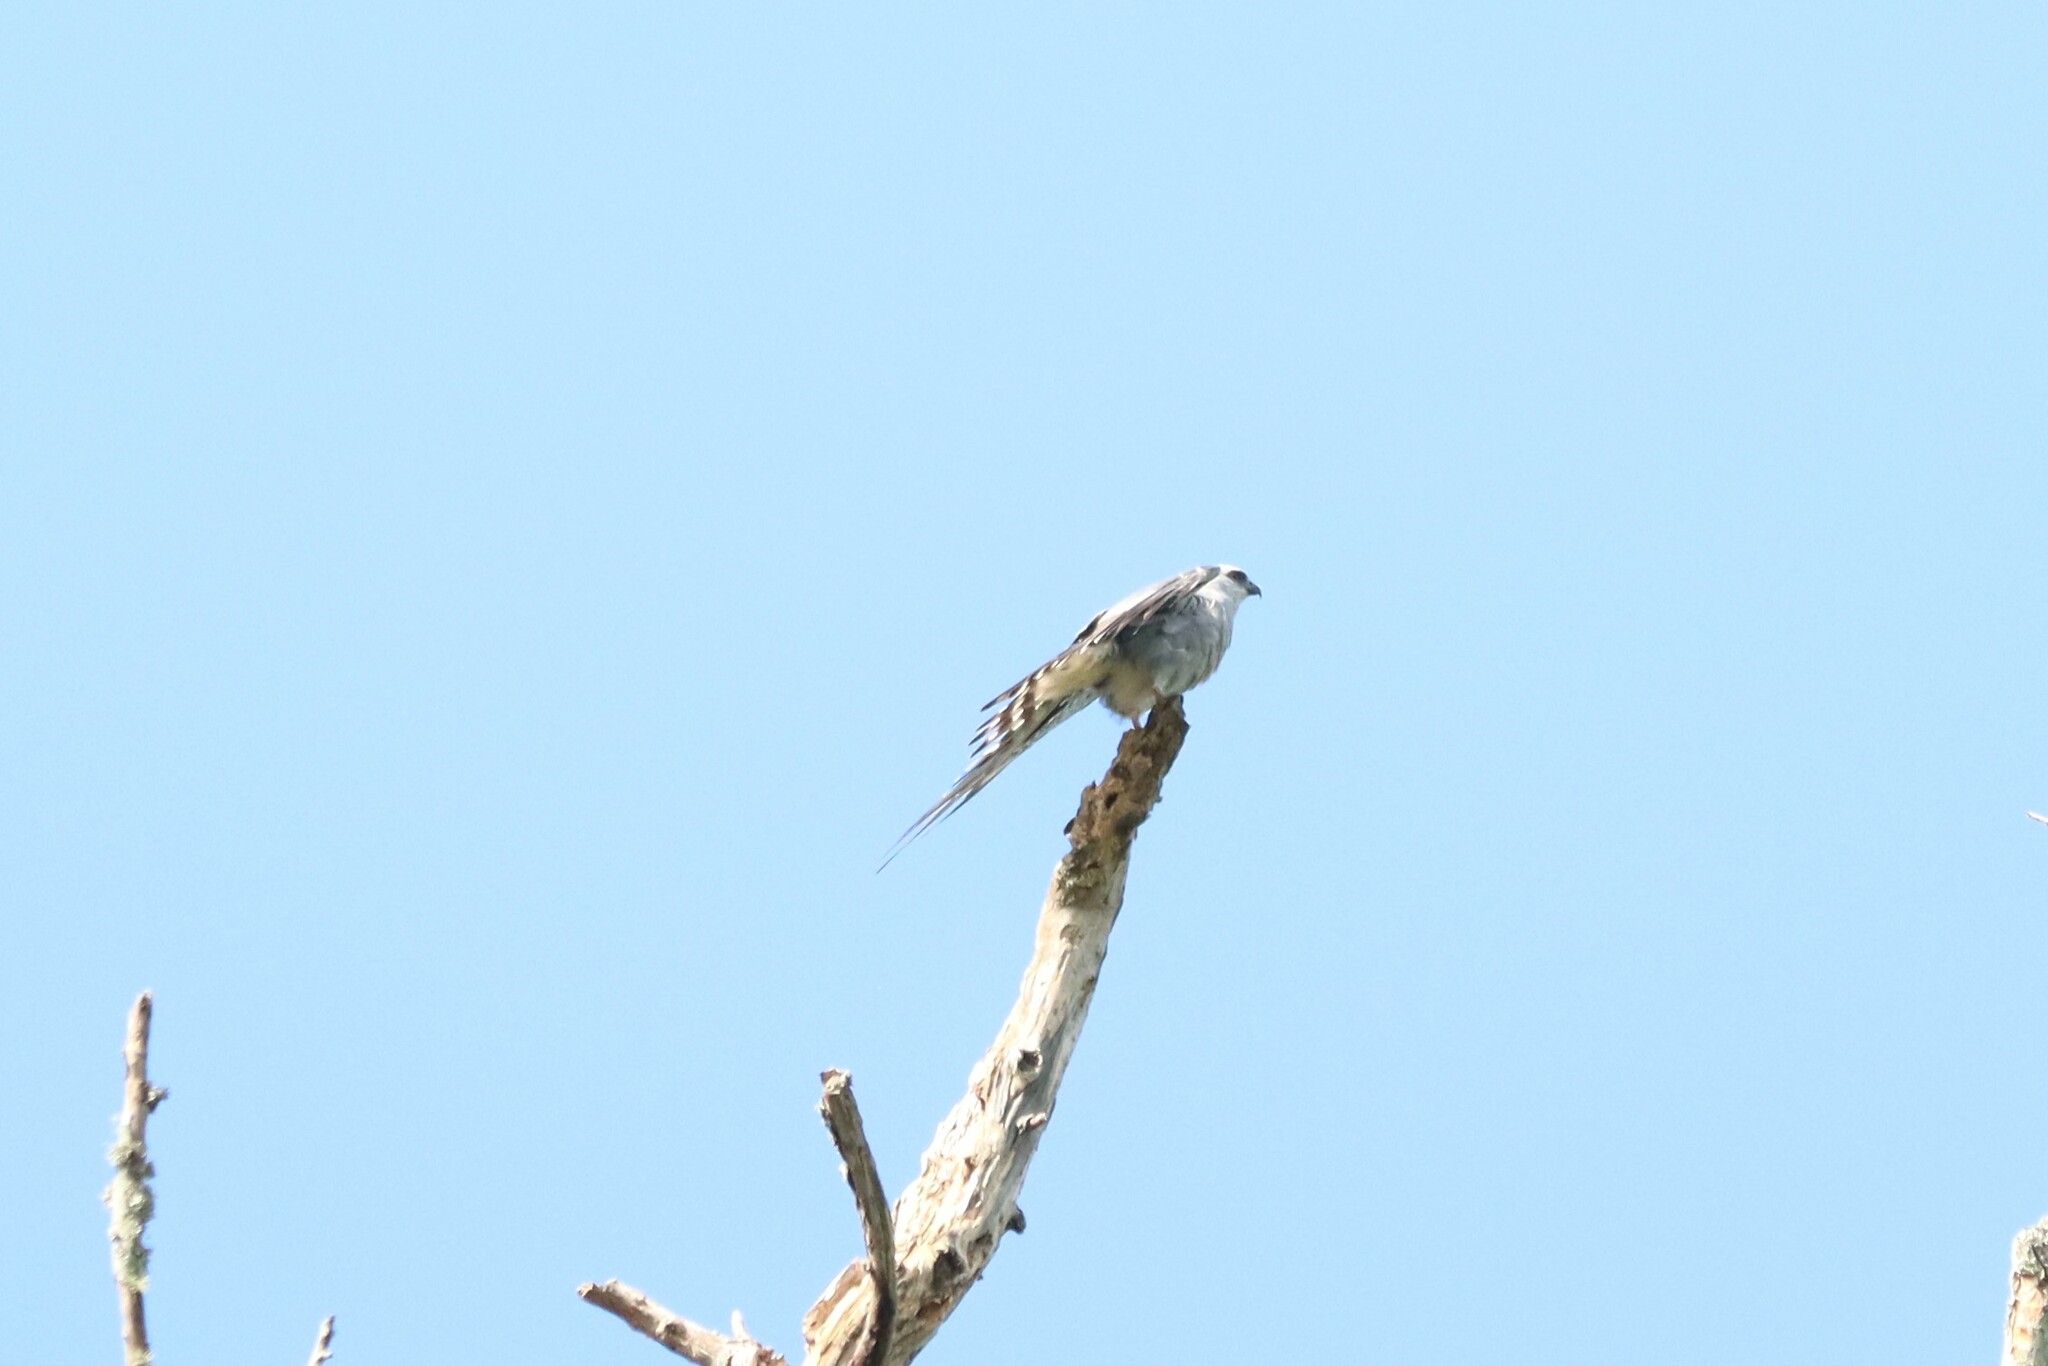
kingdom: Animalia
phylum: Chordata
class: Aves
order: Accipitriformes
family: Accipitridae
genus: Ictinia
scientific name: Ictinia mississippiensis
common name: Mississippi kite
